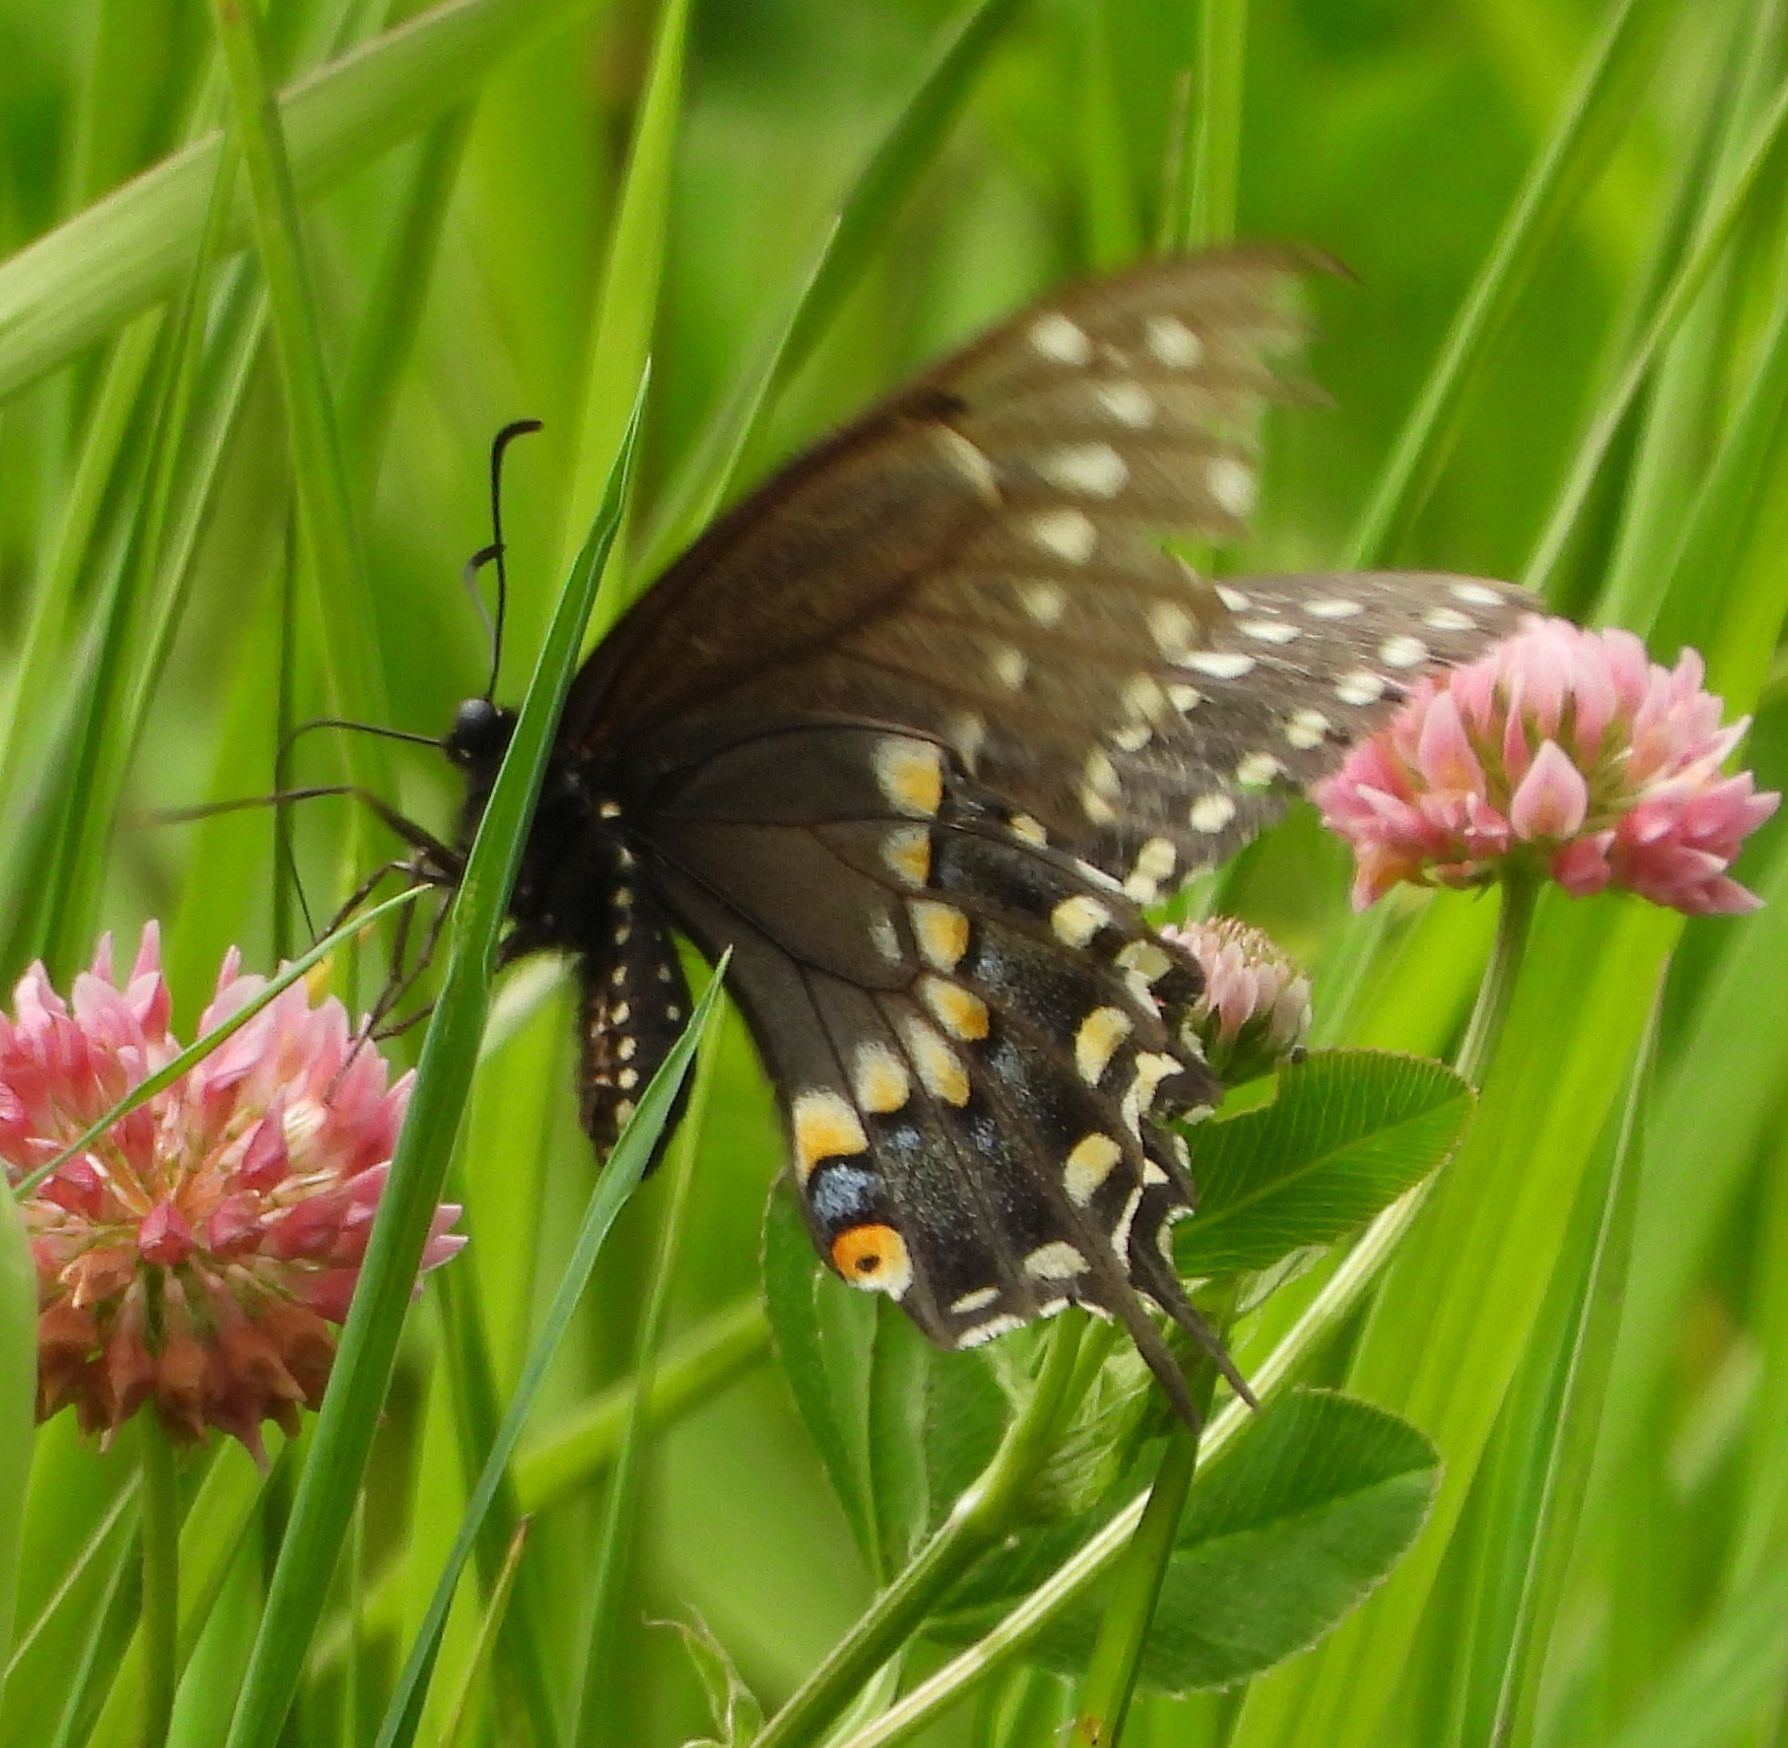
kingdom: Animalia
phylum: Arthropoda
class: Insecta
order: Lepidoptera
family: Papilionidae
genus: Papilio
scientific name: Papilio polyxenes
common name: Black swallowtail
